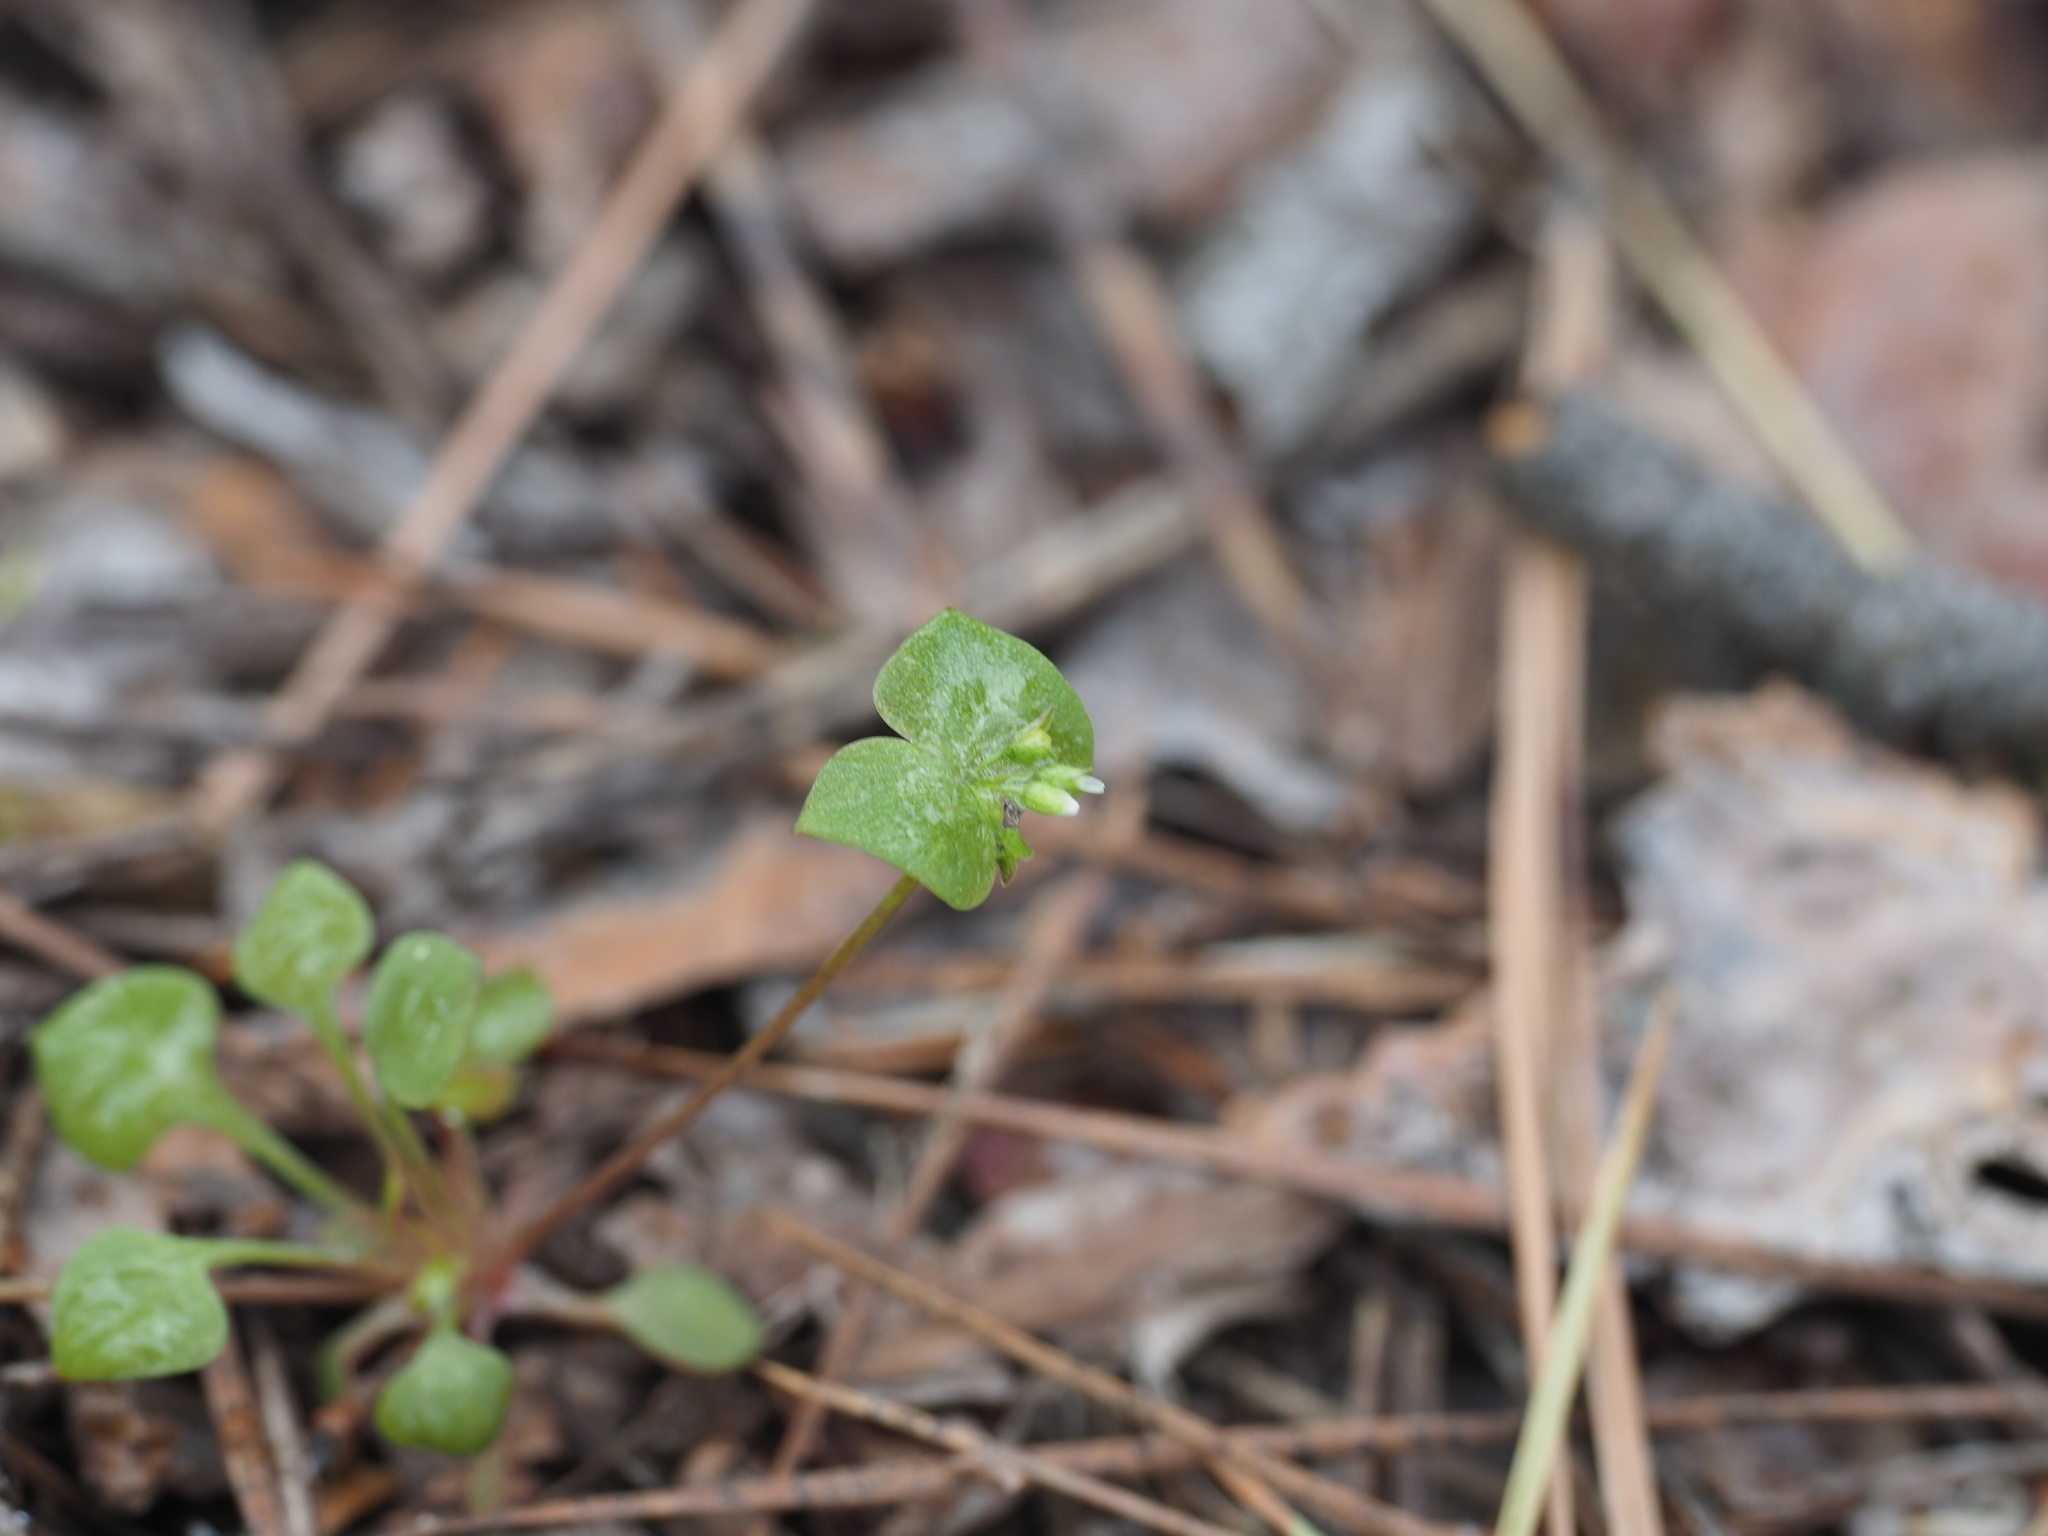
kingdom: Plantae
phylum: Tracheophyta
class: Magnoliopsida
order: Caryophyllales
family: Montiaceae
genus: Claytonia
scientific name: Claytonia rubra
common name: Erubescent miner's-lettuce
